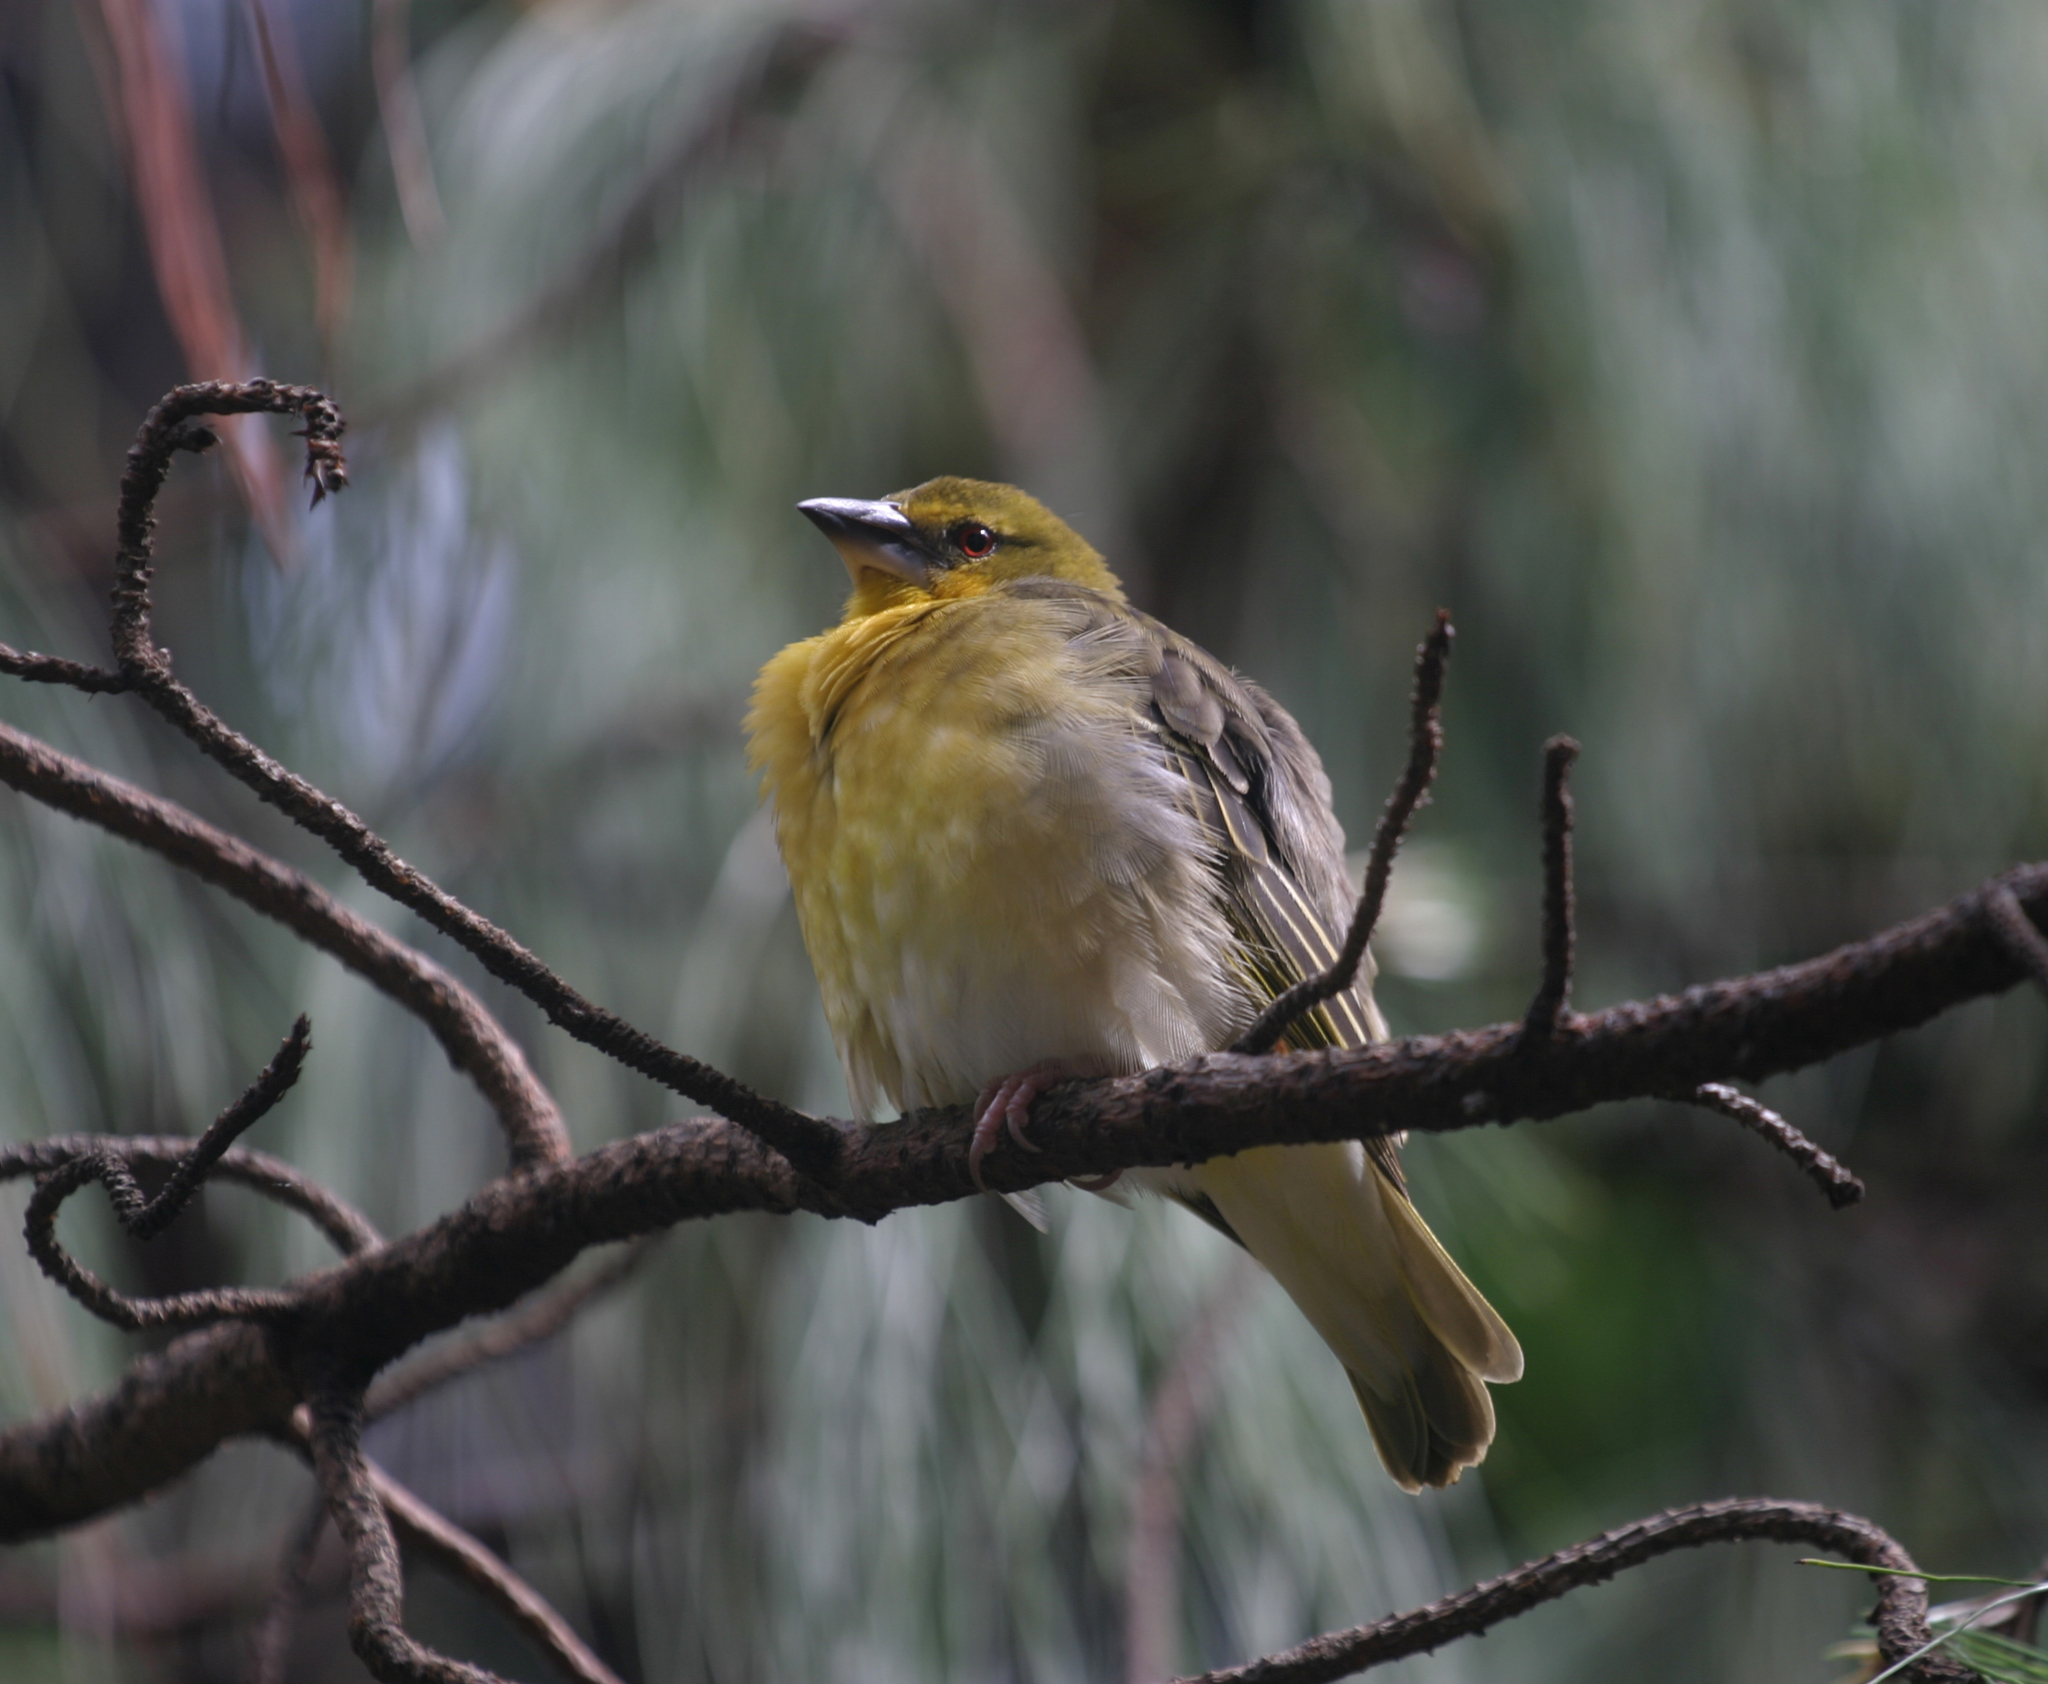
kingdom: Animalia
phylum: Chordata
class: Aves
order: Passeriformes
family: Ploceidae
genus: Ploceus
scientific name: Ploceus cucullatus
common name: Village weaver
